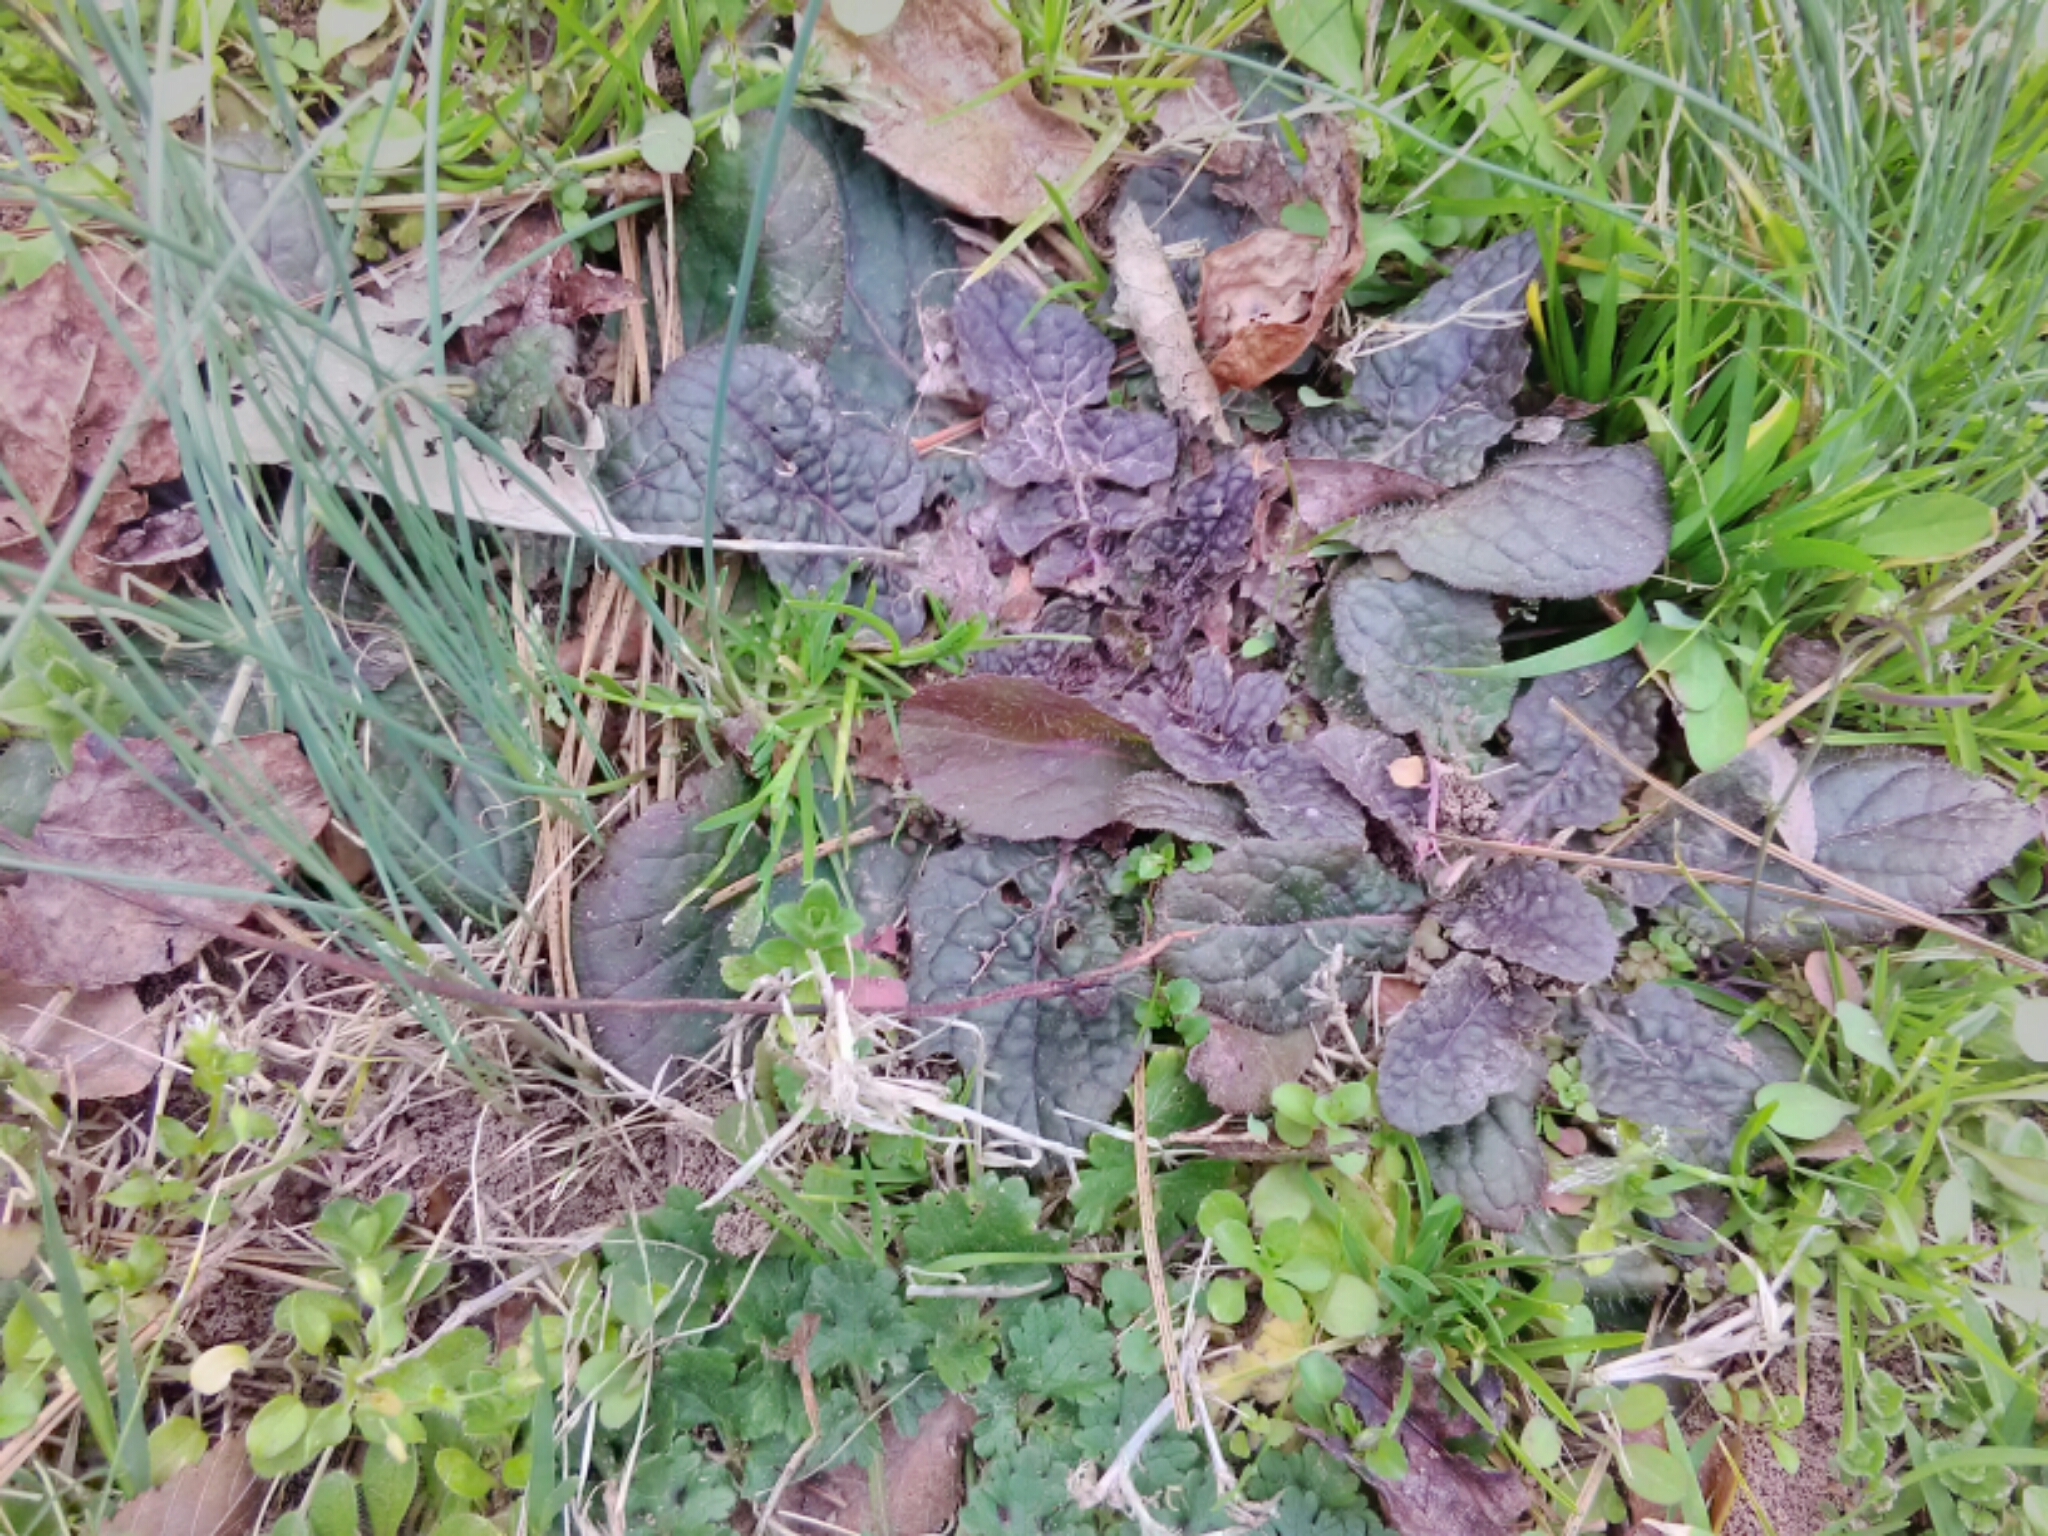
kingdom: Plantae
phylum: Tracheophyta
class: Magnoliopsida
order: Lamiales
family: Lamiaceae
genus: Salvia
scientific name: Salvia lyrata
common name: Cancerweed
